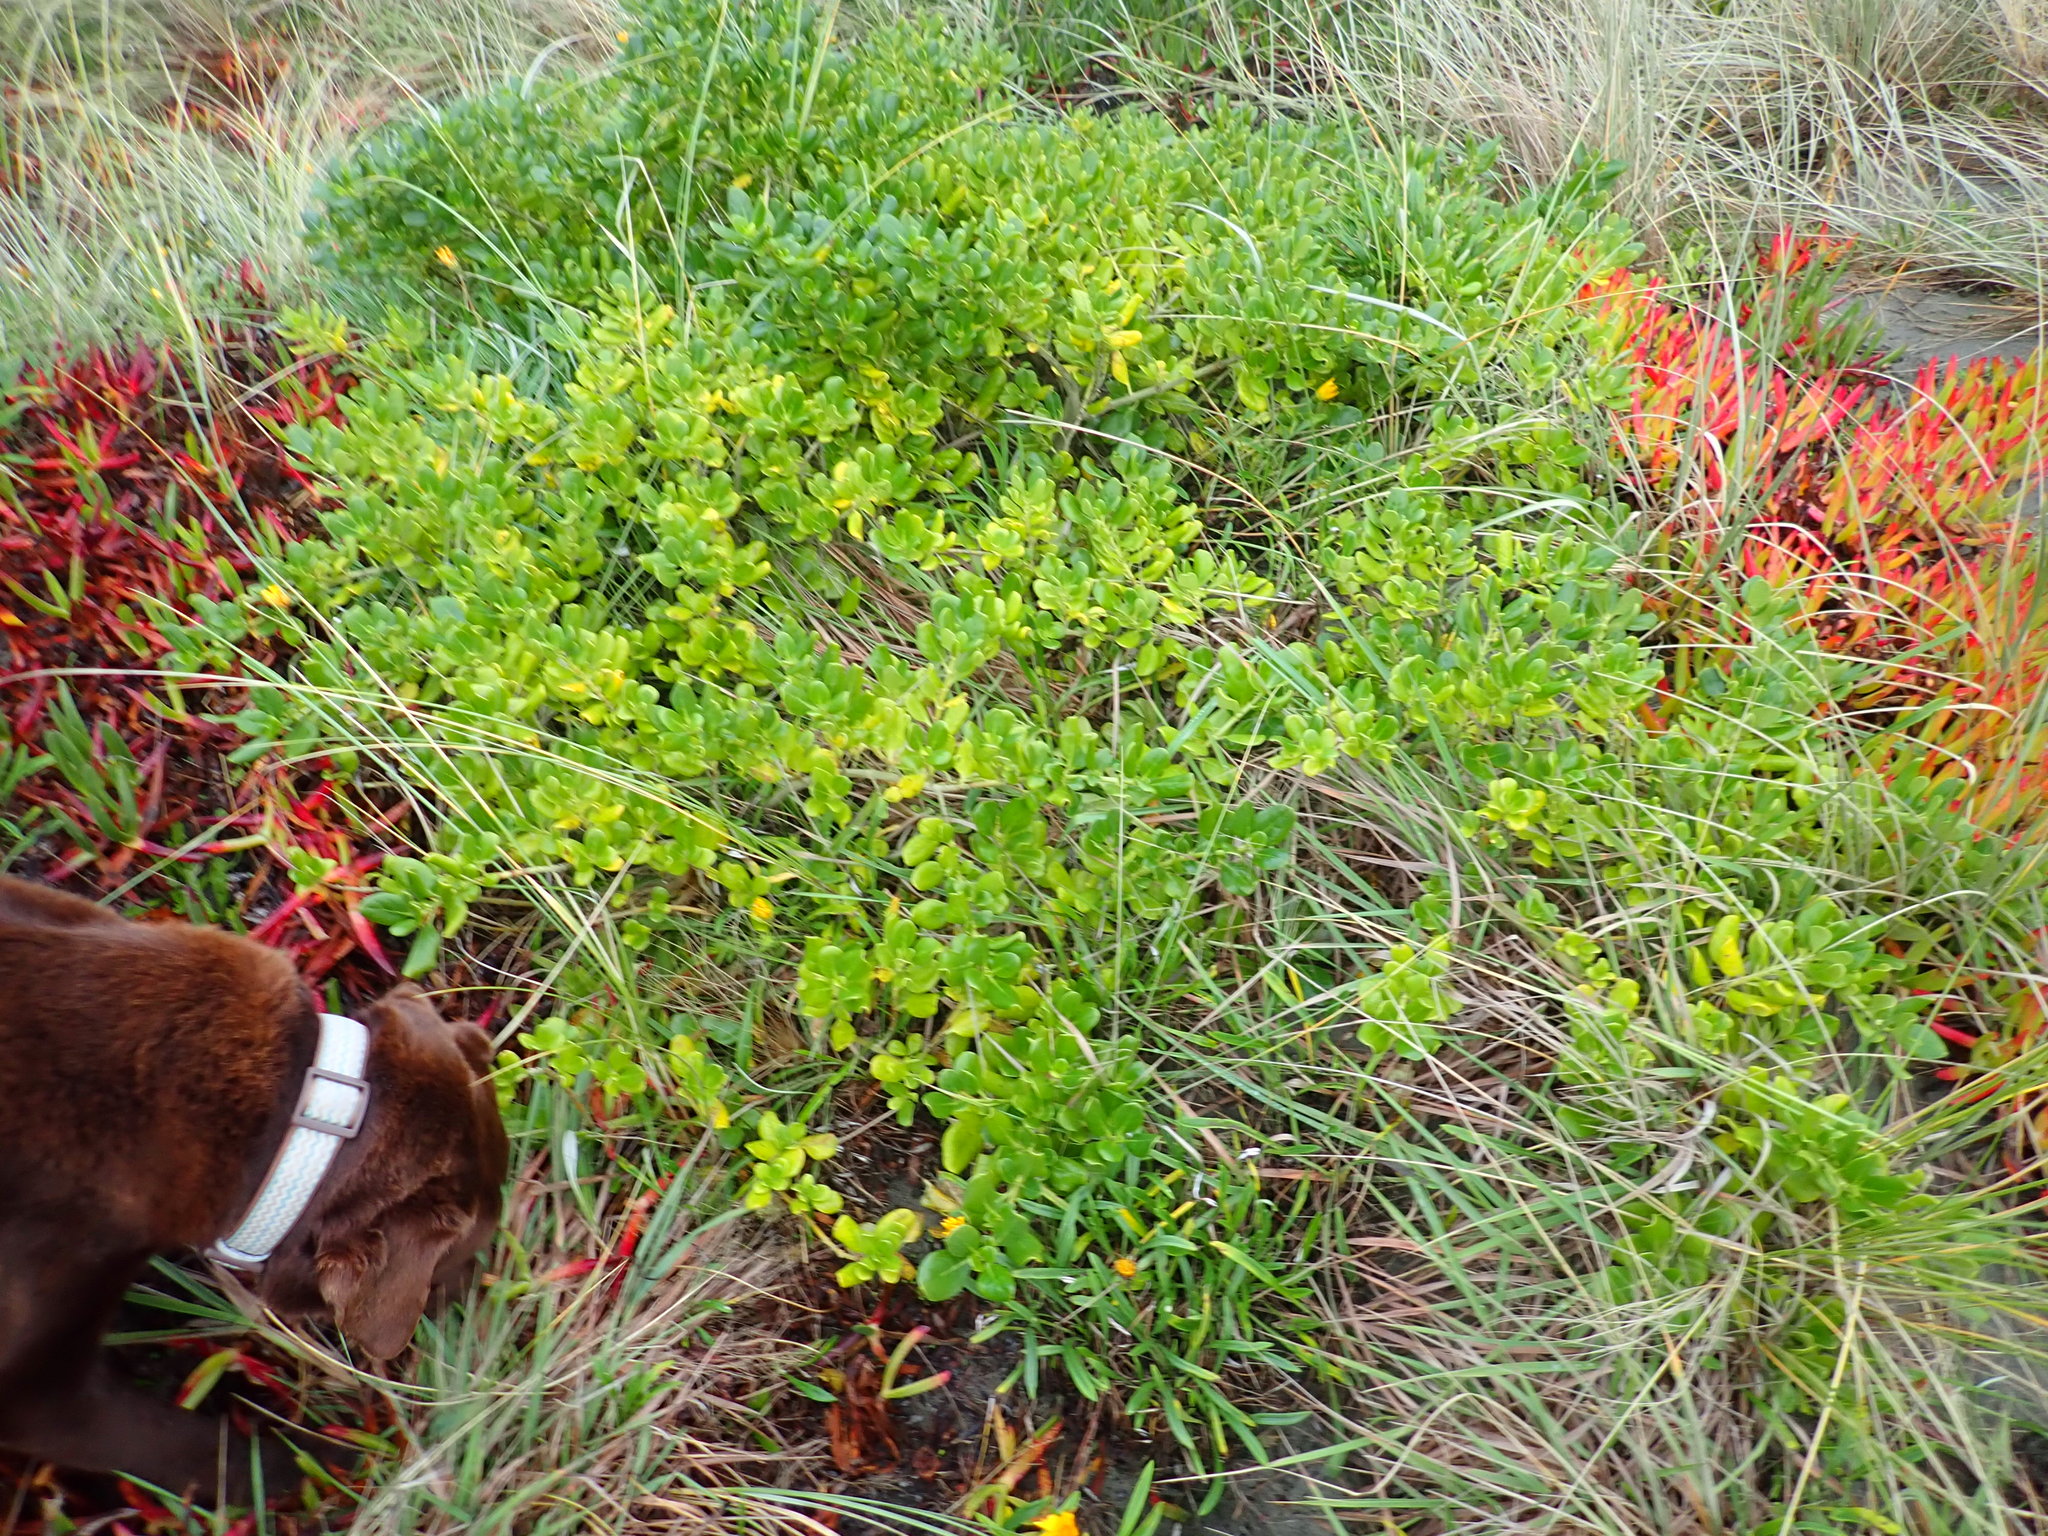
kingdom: Plantae
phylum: Tracheophyta
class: Magnoliopsida
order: Gentianales
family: Rubiaceae
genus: Coprosma
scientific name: Coprosma repens
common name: Tree bedstraw
